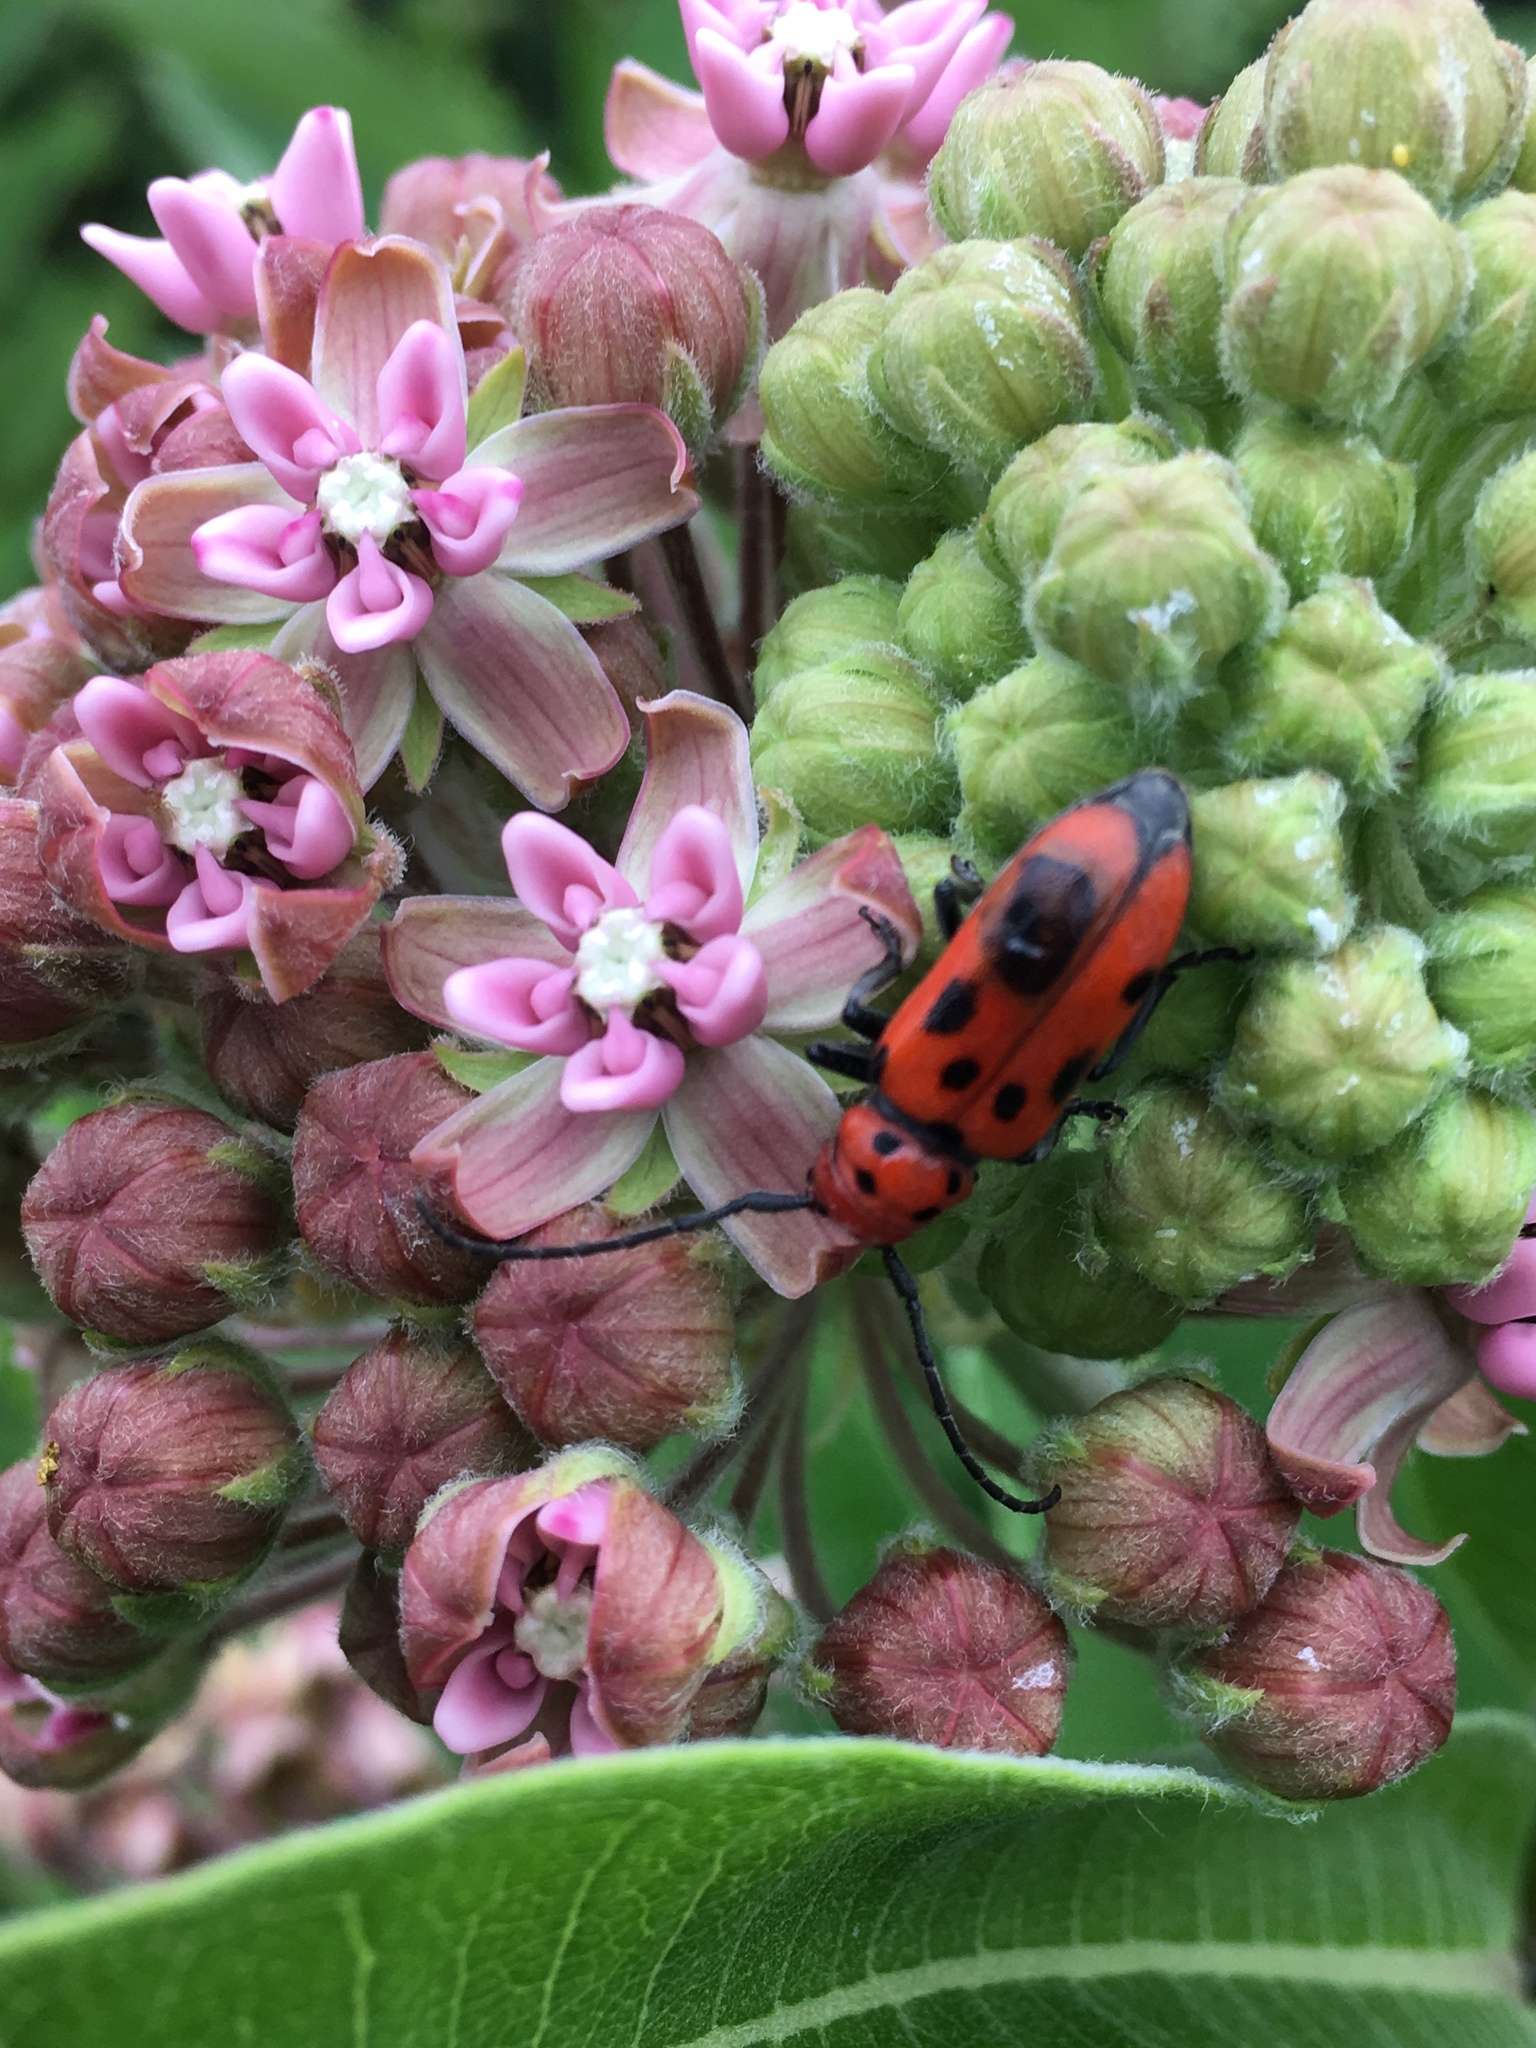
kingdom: Animalia
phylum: Arthropoda
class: Insecta
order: Coleoptera
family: Cerambycidae
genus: Tetraopes
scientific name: Tetraopes tetrophthalmus
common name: Red milkweed beetle
